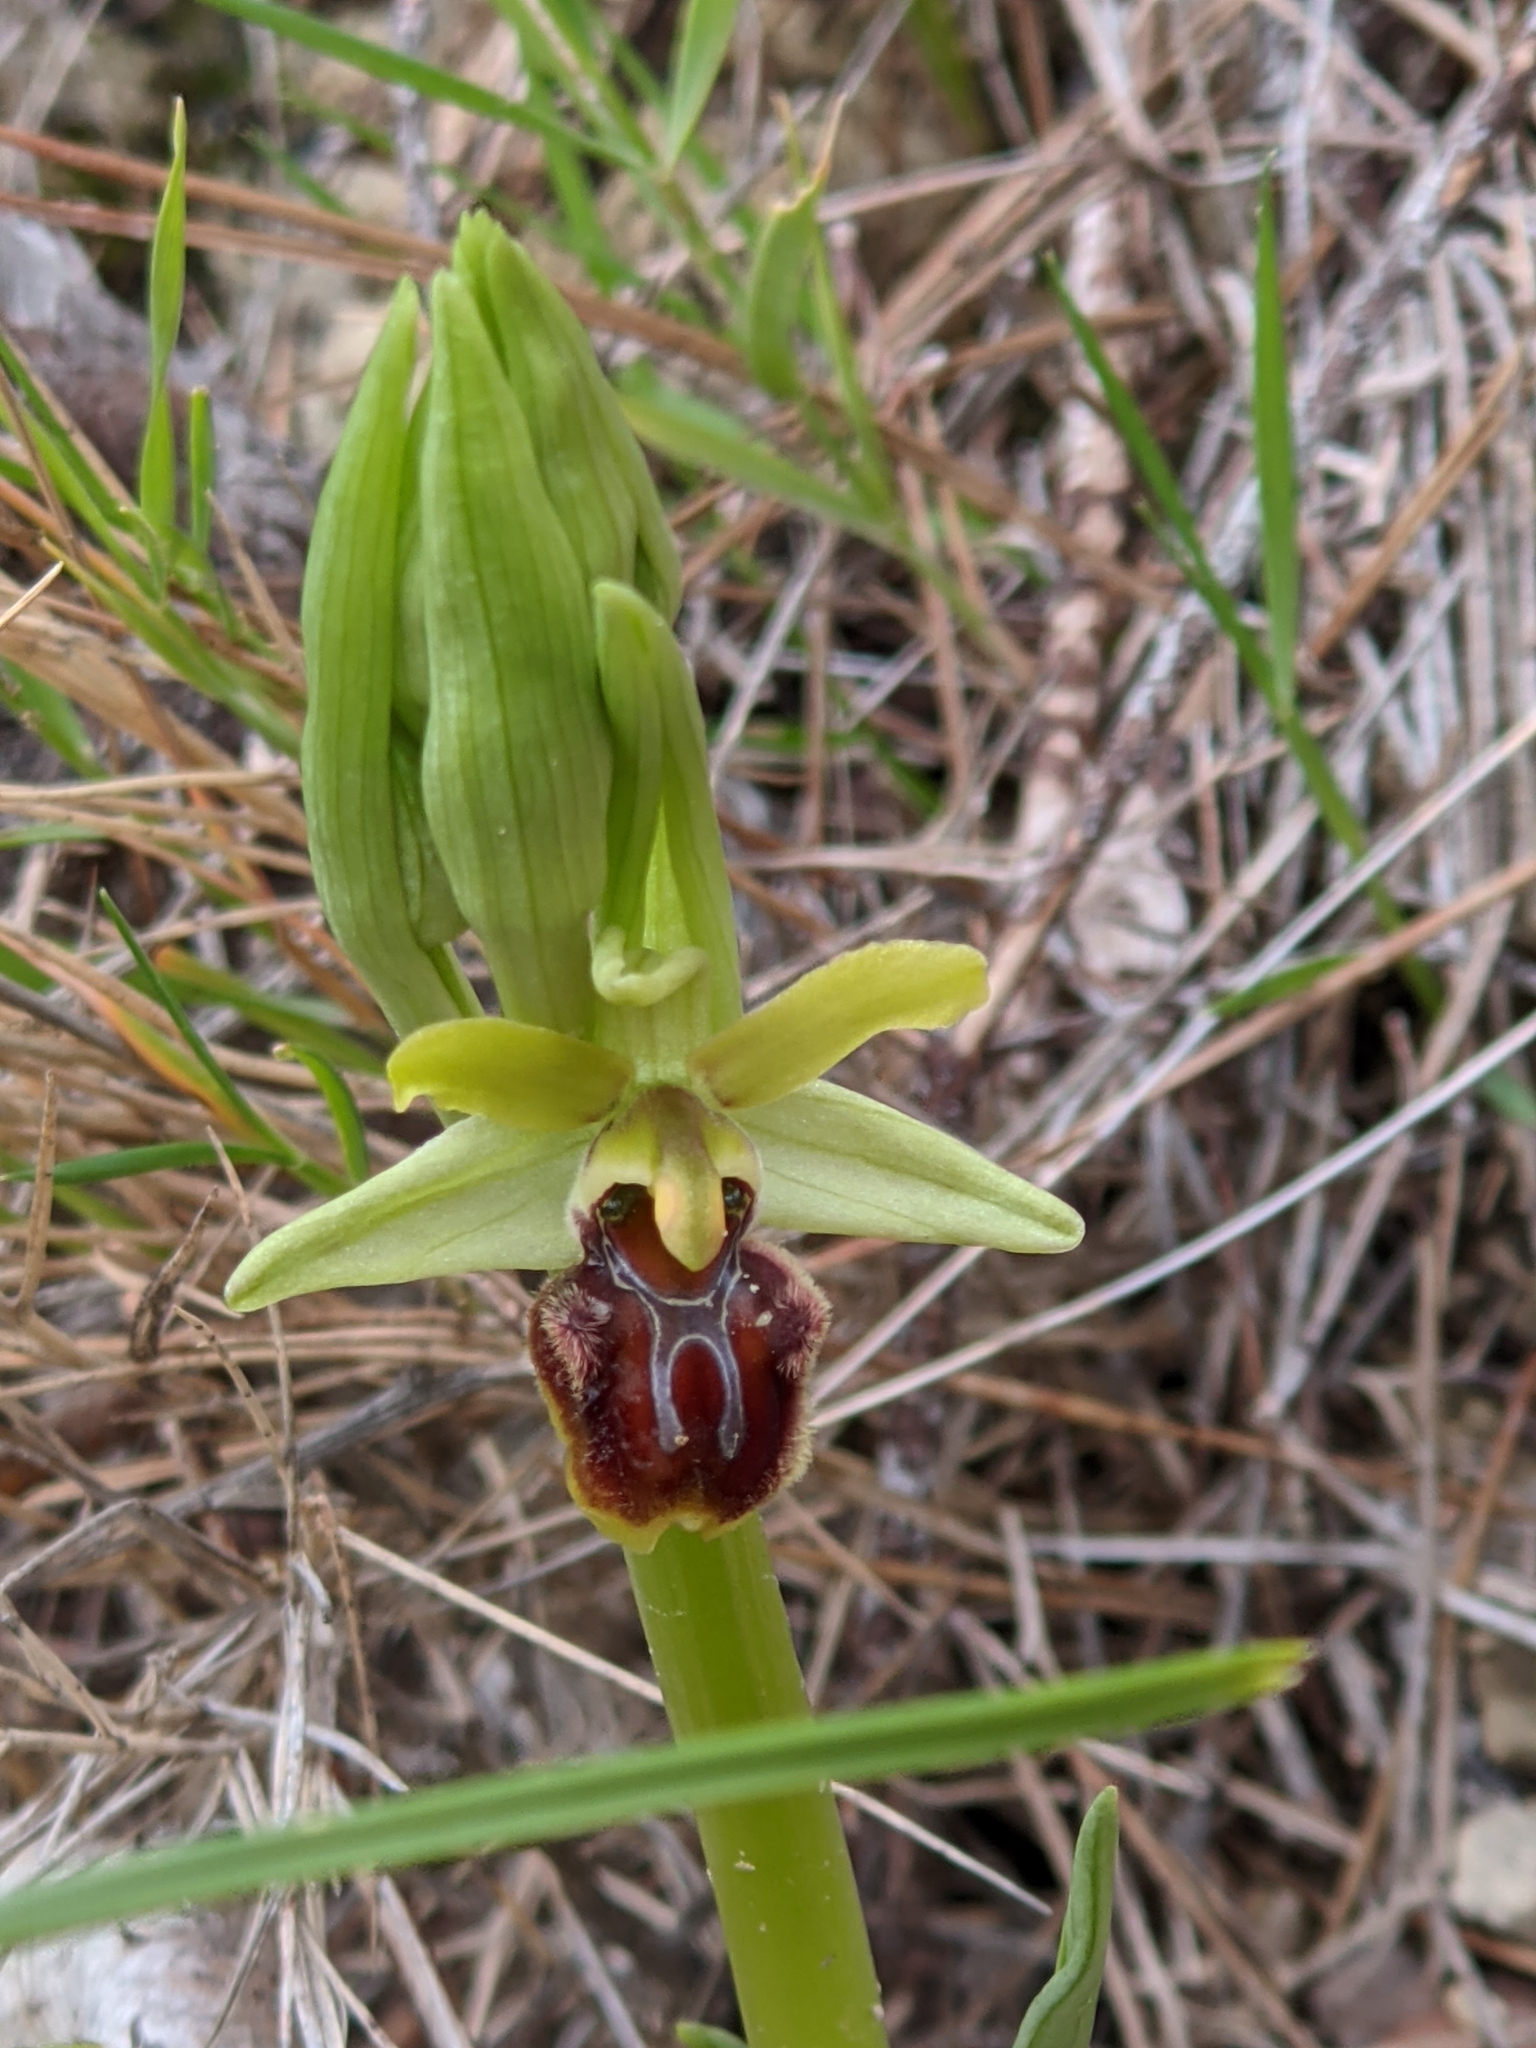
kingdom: Plantae
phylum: Tracheophyta
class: Liliopsida
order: Asparagales
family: Orchidaceae
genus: Ophrys
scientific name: Ophrys sphegodes
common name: Early spider-orchid
